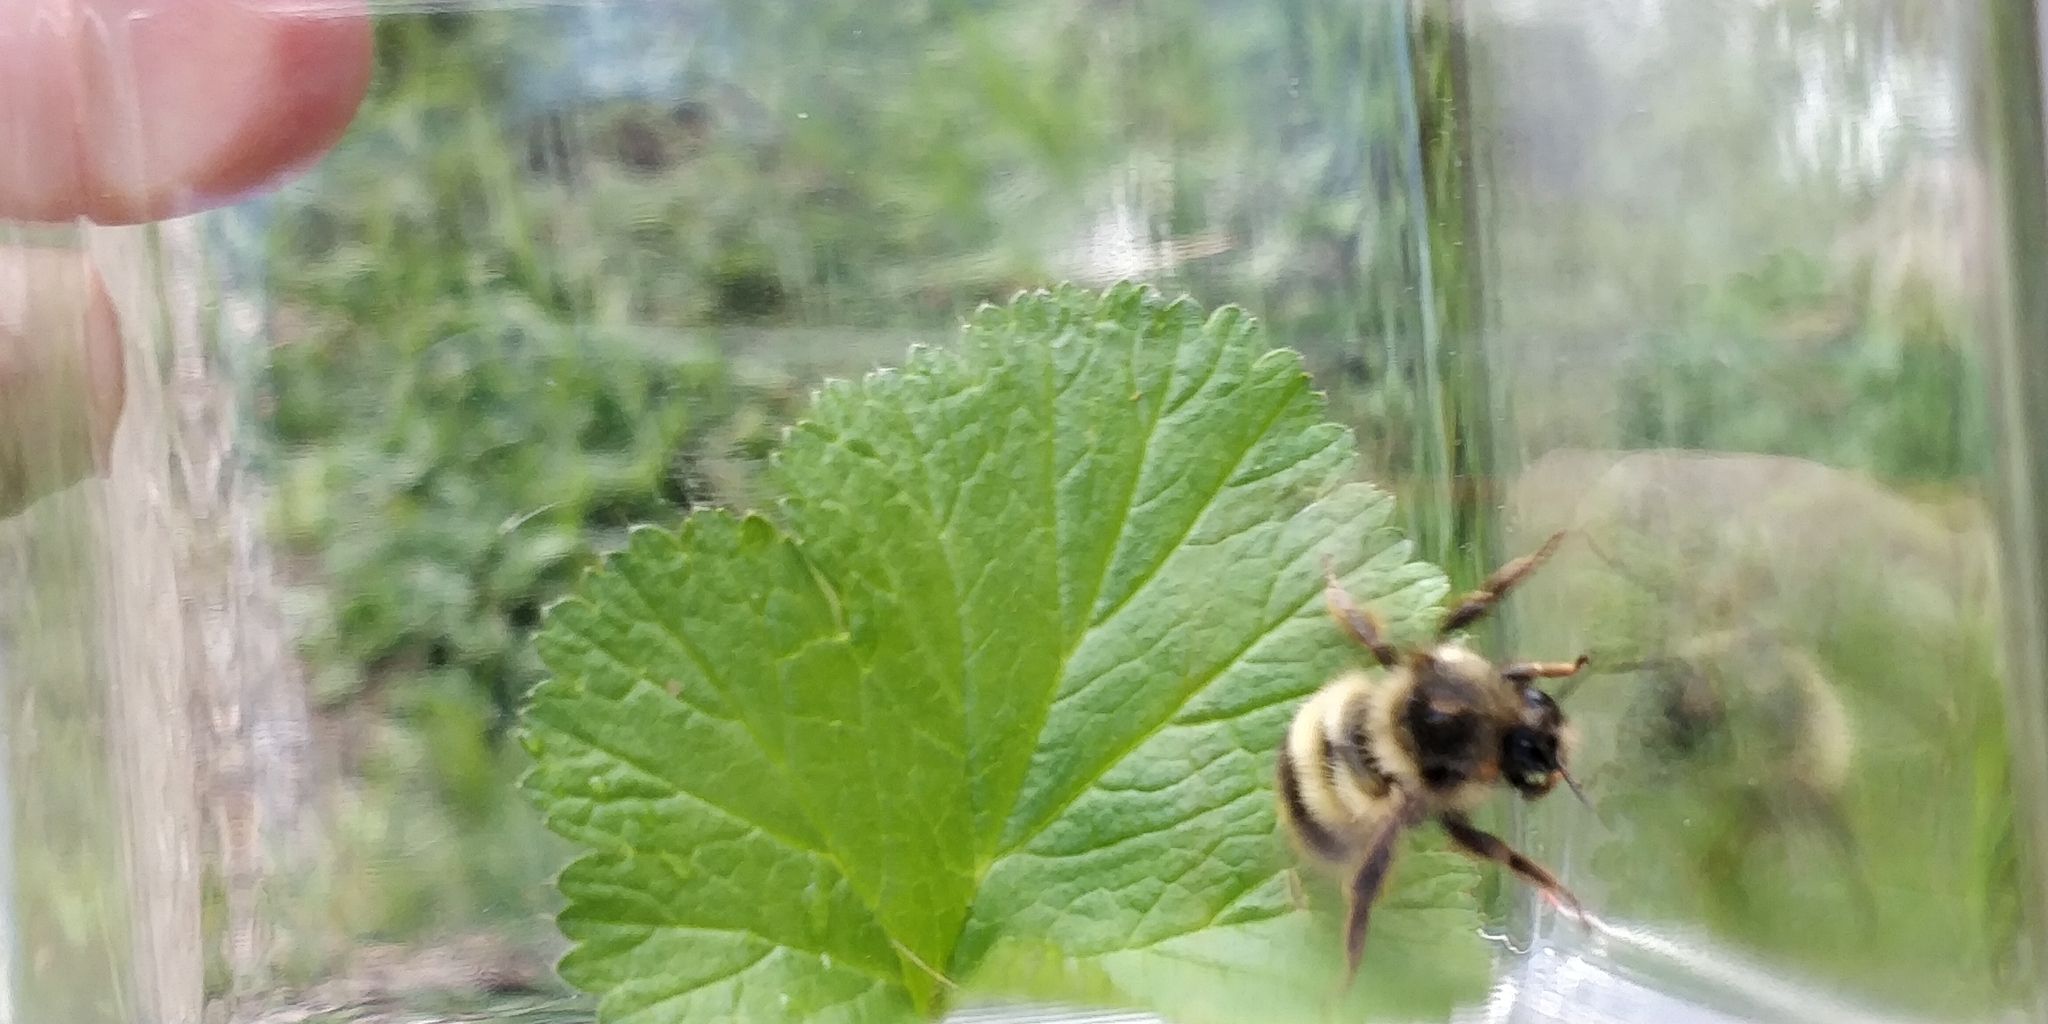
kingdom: Animalia
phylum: Arthropoda
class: Insecta
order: Hymenoptera
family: Apidae
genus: Bombus
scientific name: Bombus mixtus
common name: Fuzzy-horned bumble bee
